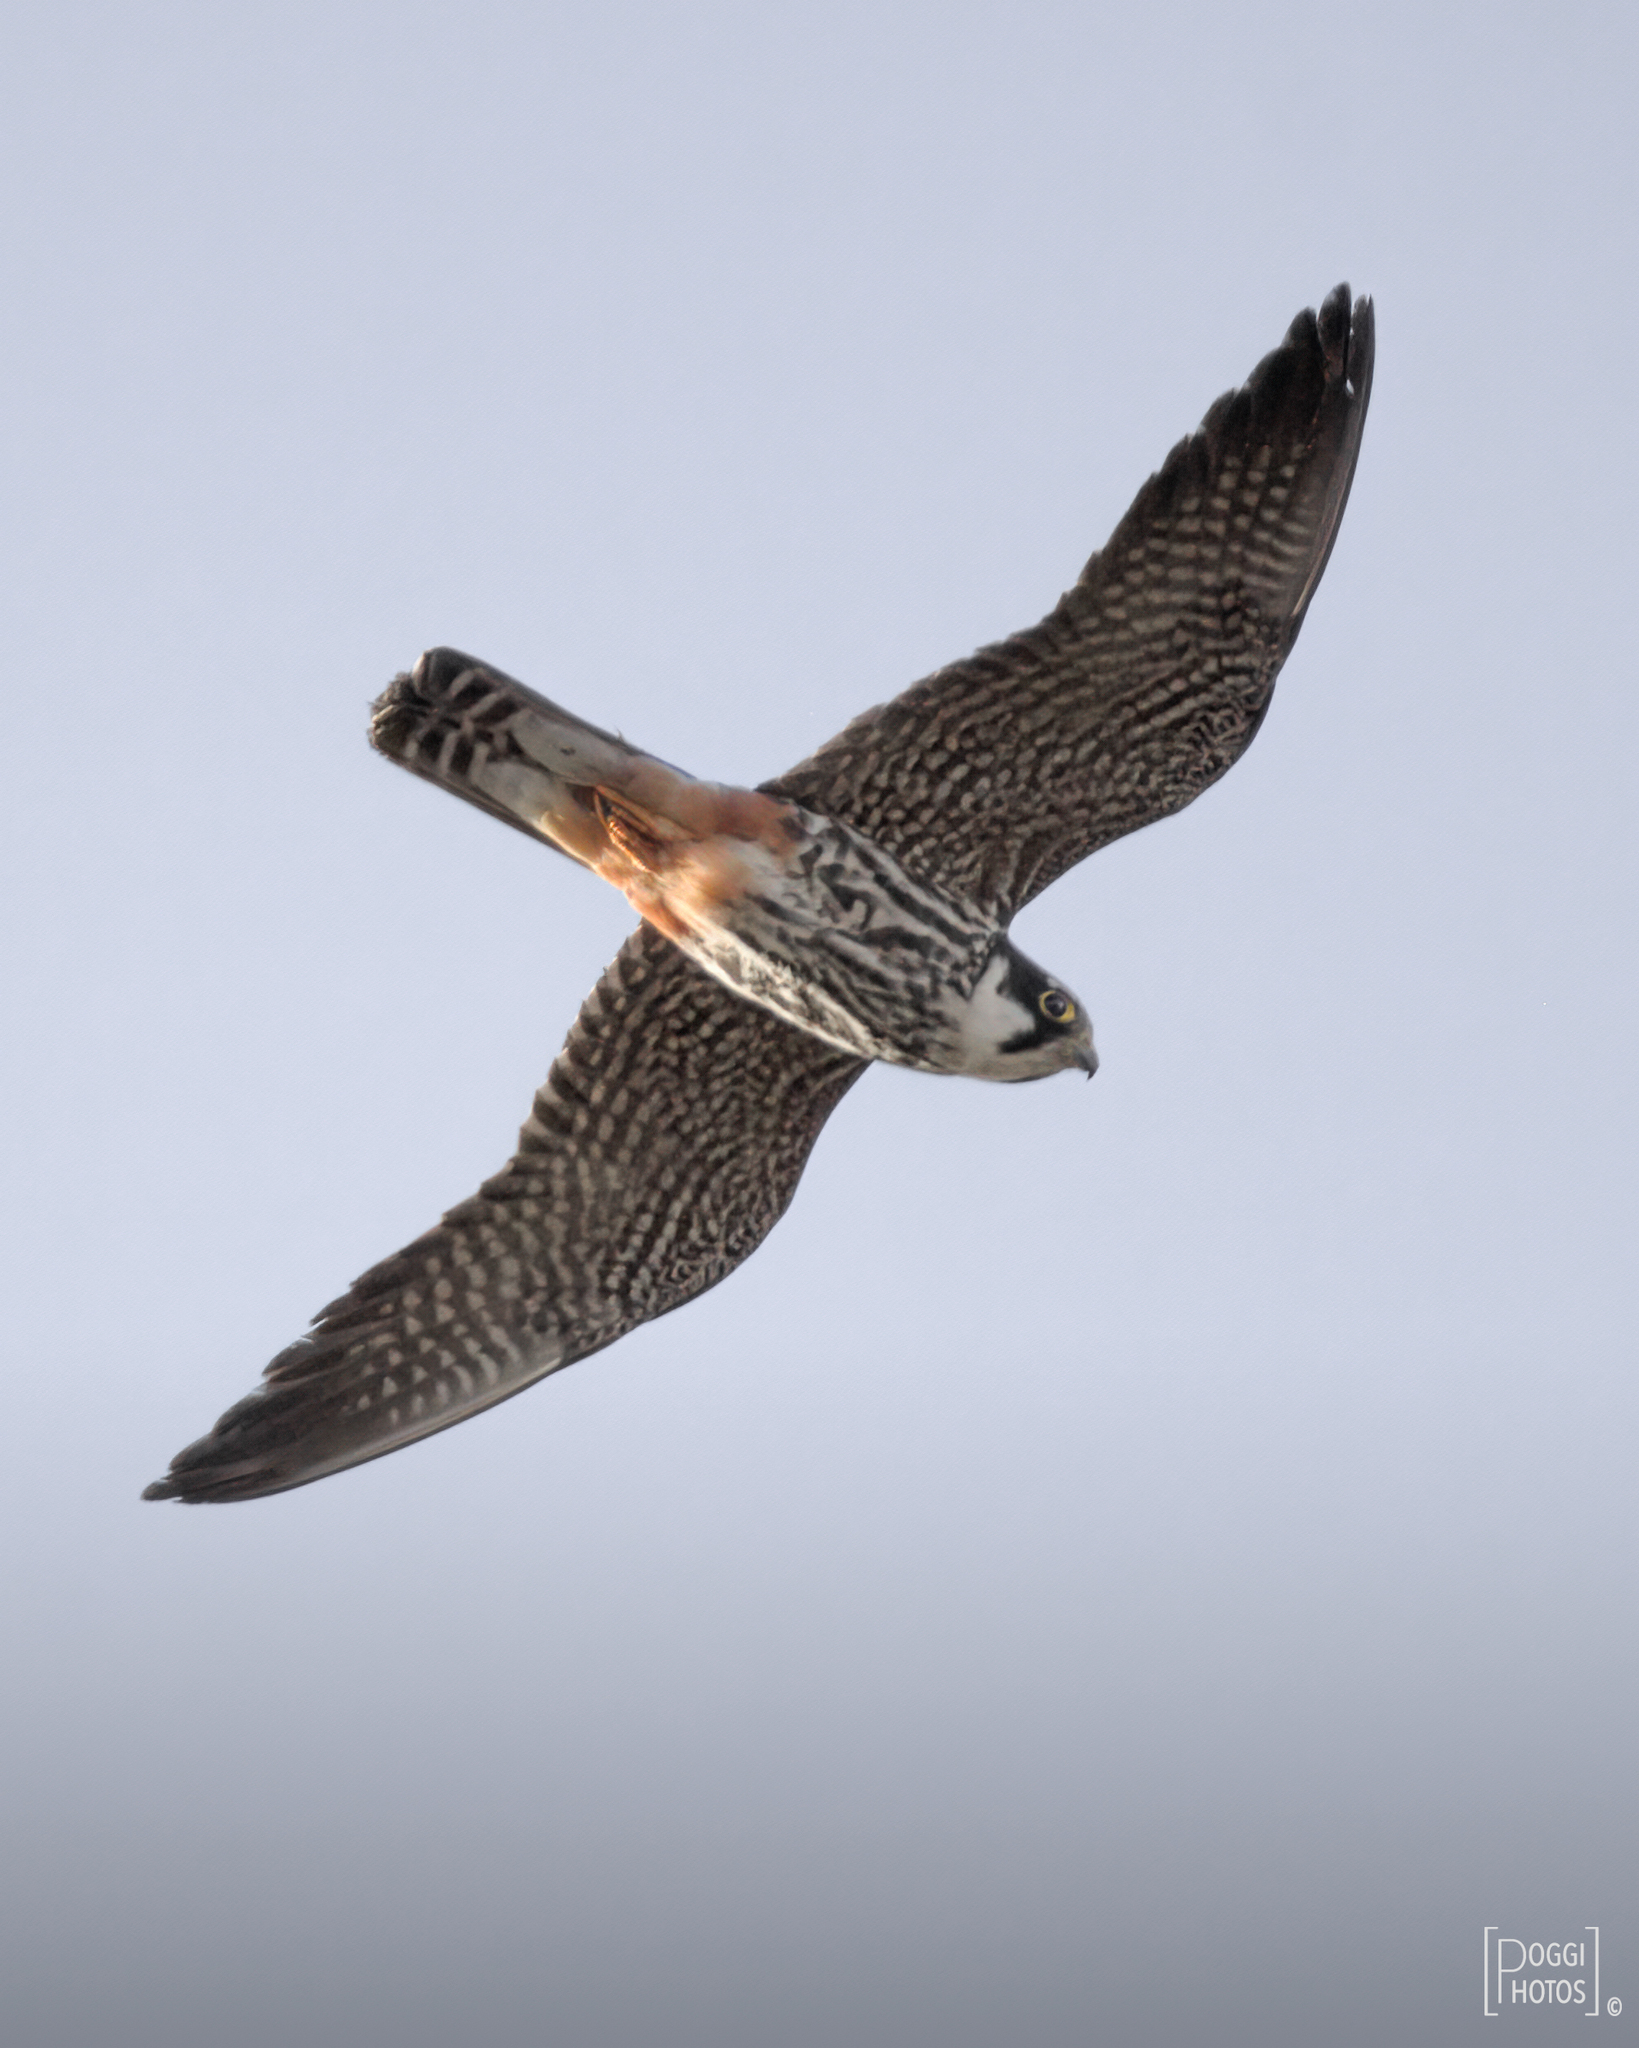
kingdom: Animalia
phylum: Chordata
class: Aves
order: Falconiformes
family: Falconidae
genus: Falco
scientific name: Falco subbuteo
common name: Eurasian hobby
